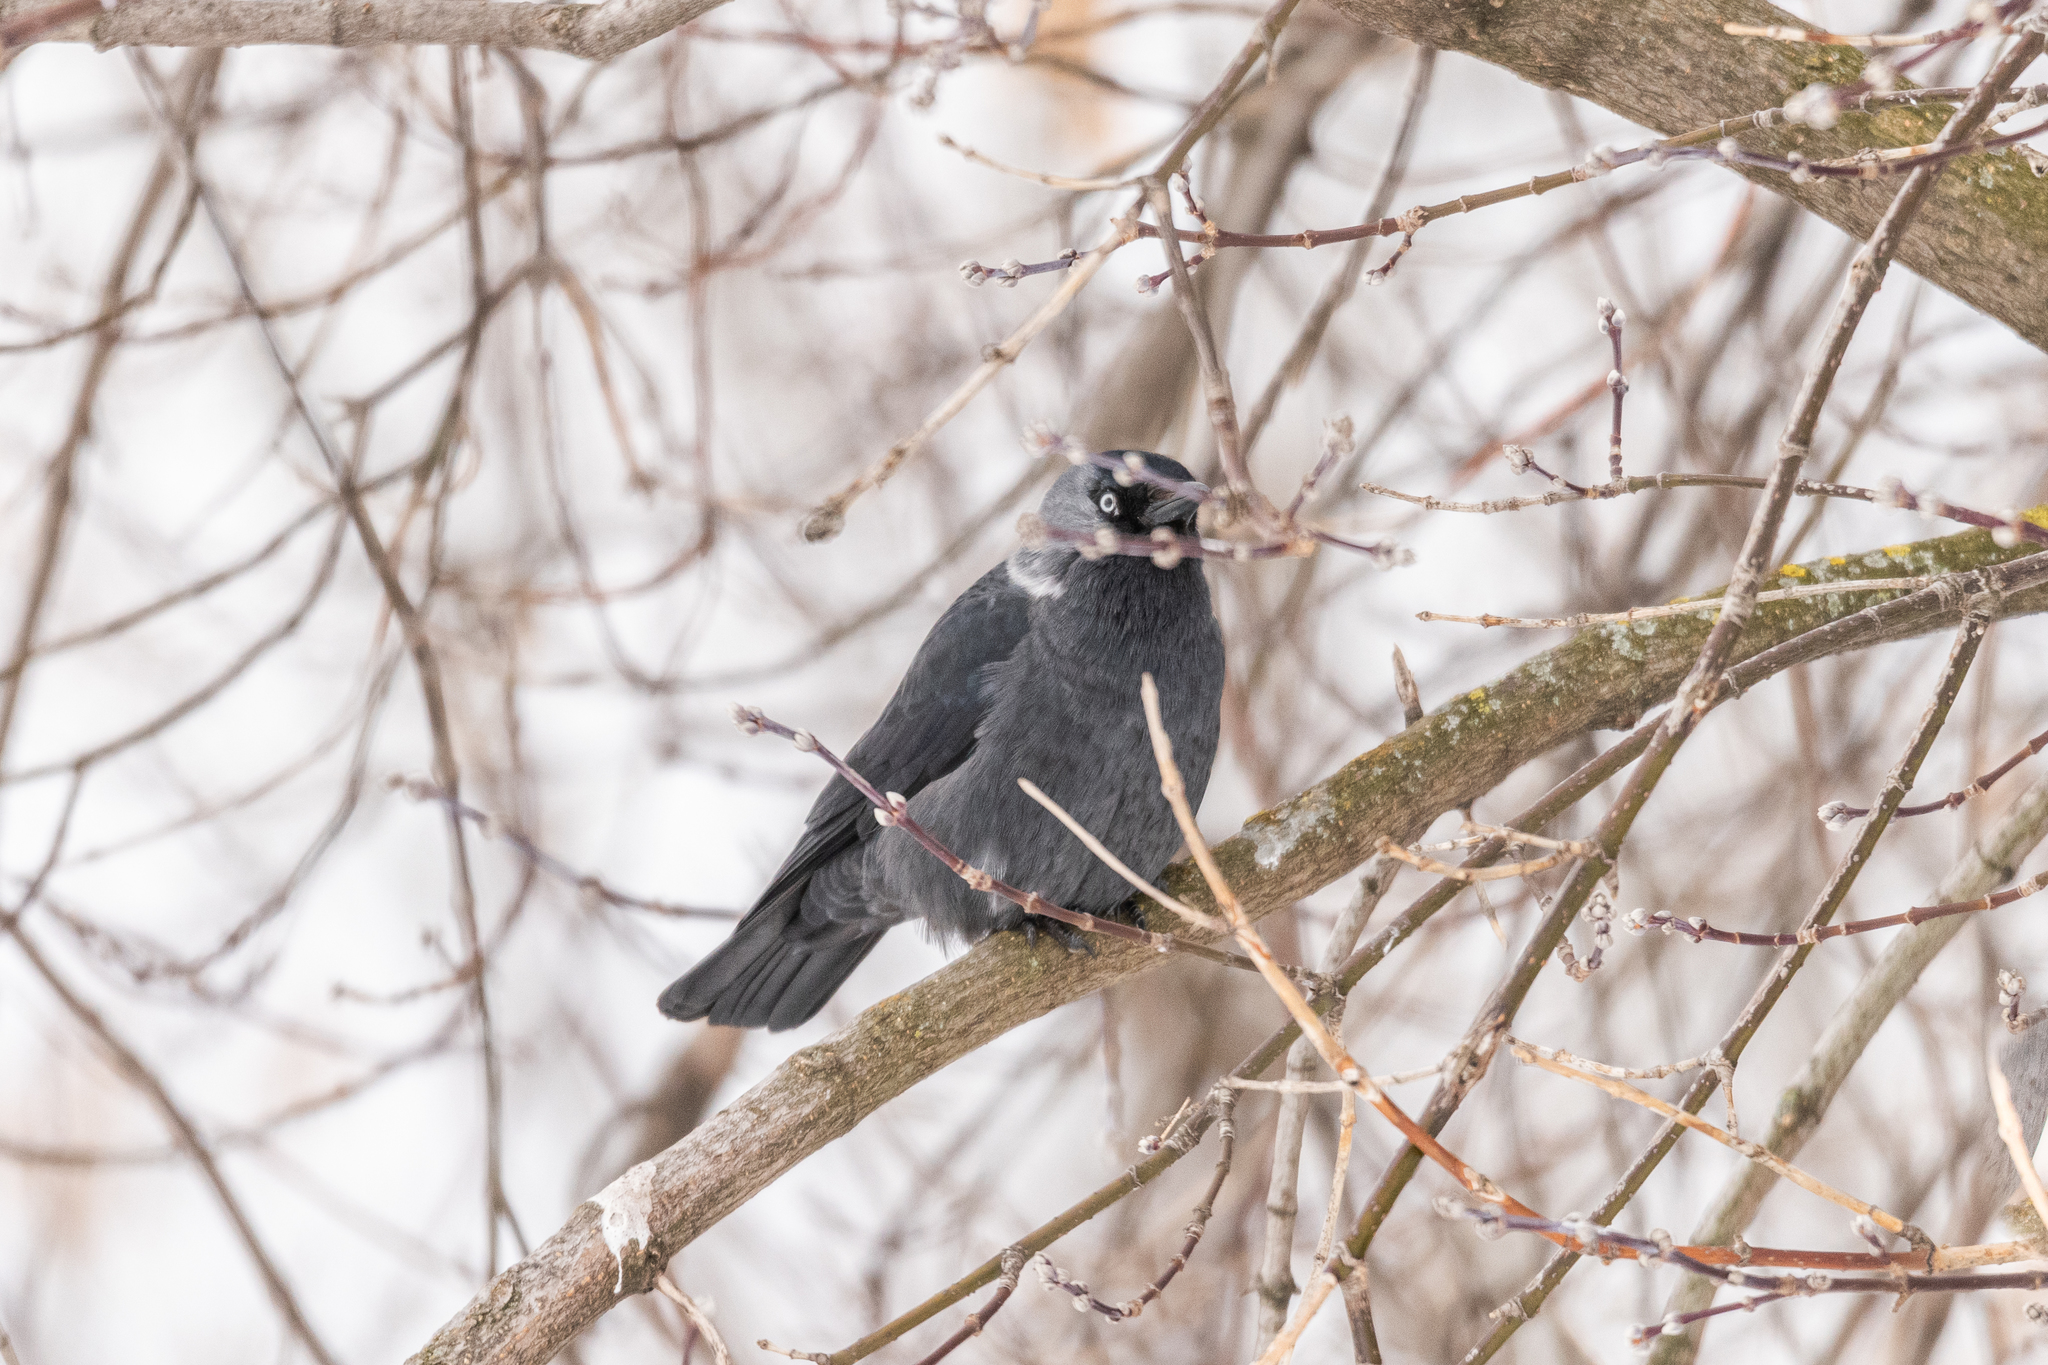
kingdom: Animalia
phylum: Chordata
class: Aves
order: Passeriformes
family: Corvidae
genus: Coloeus
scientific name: Coloeus monedula
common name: Western jackdaw
